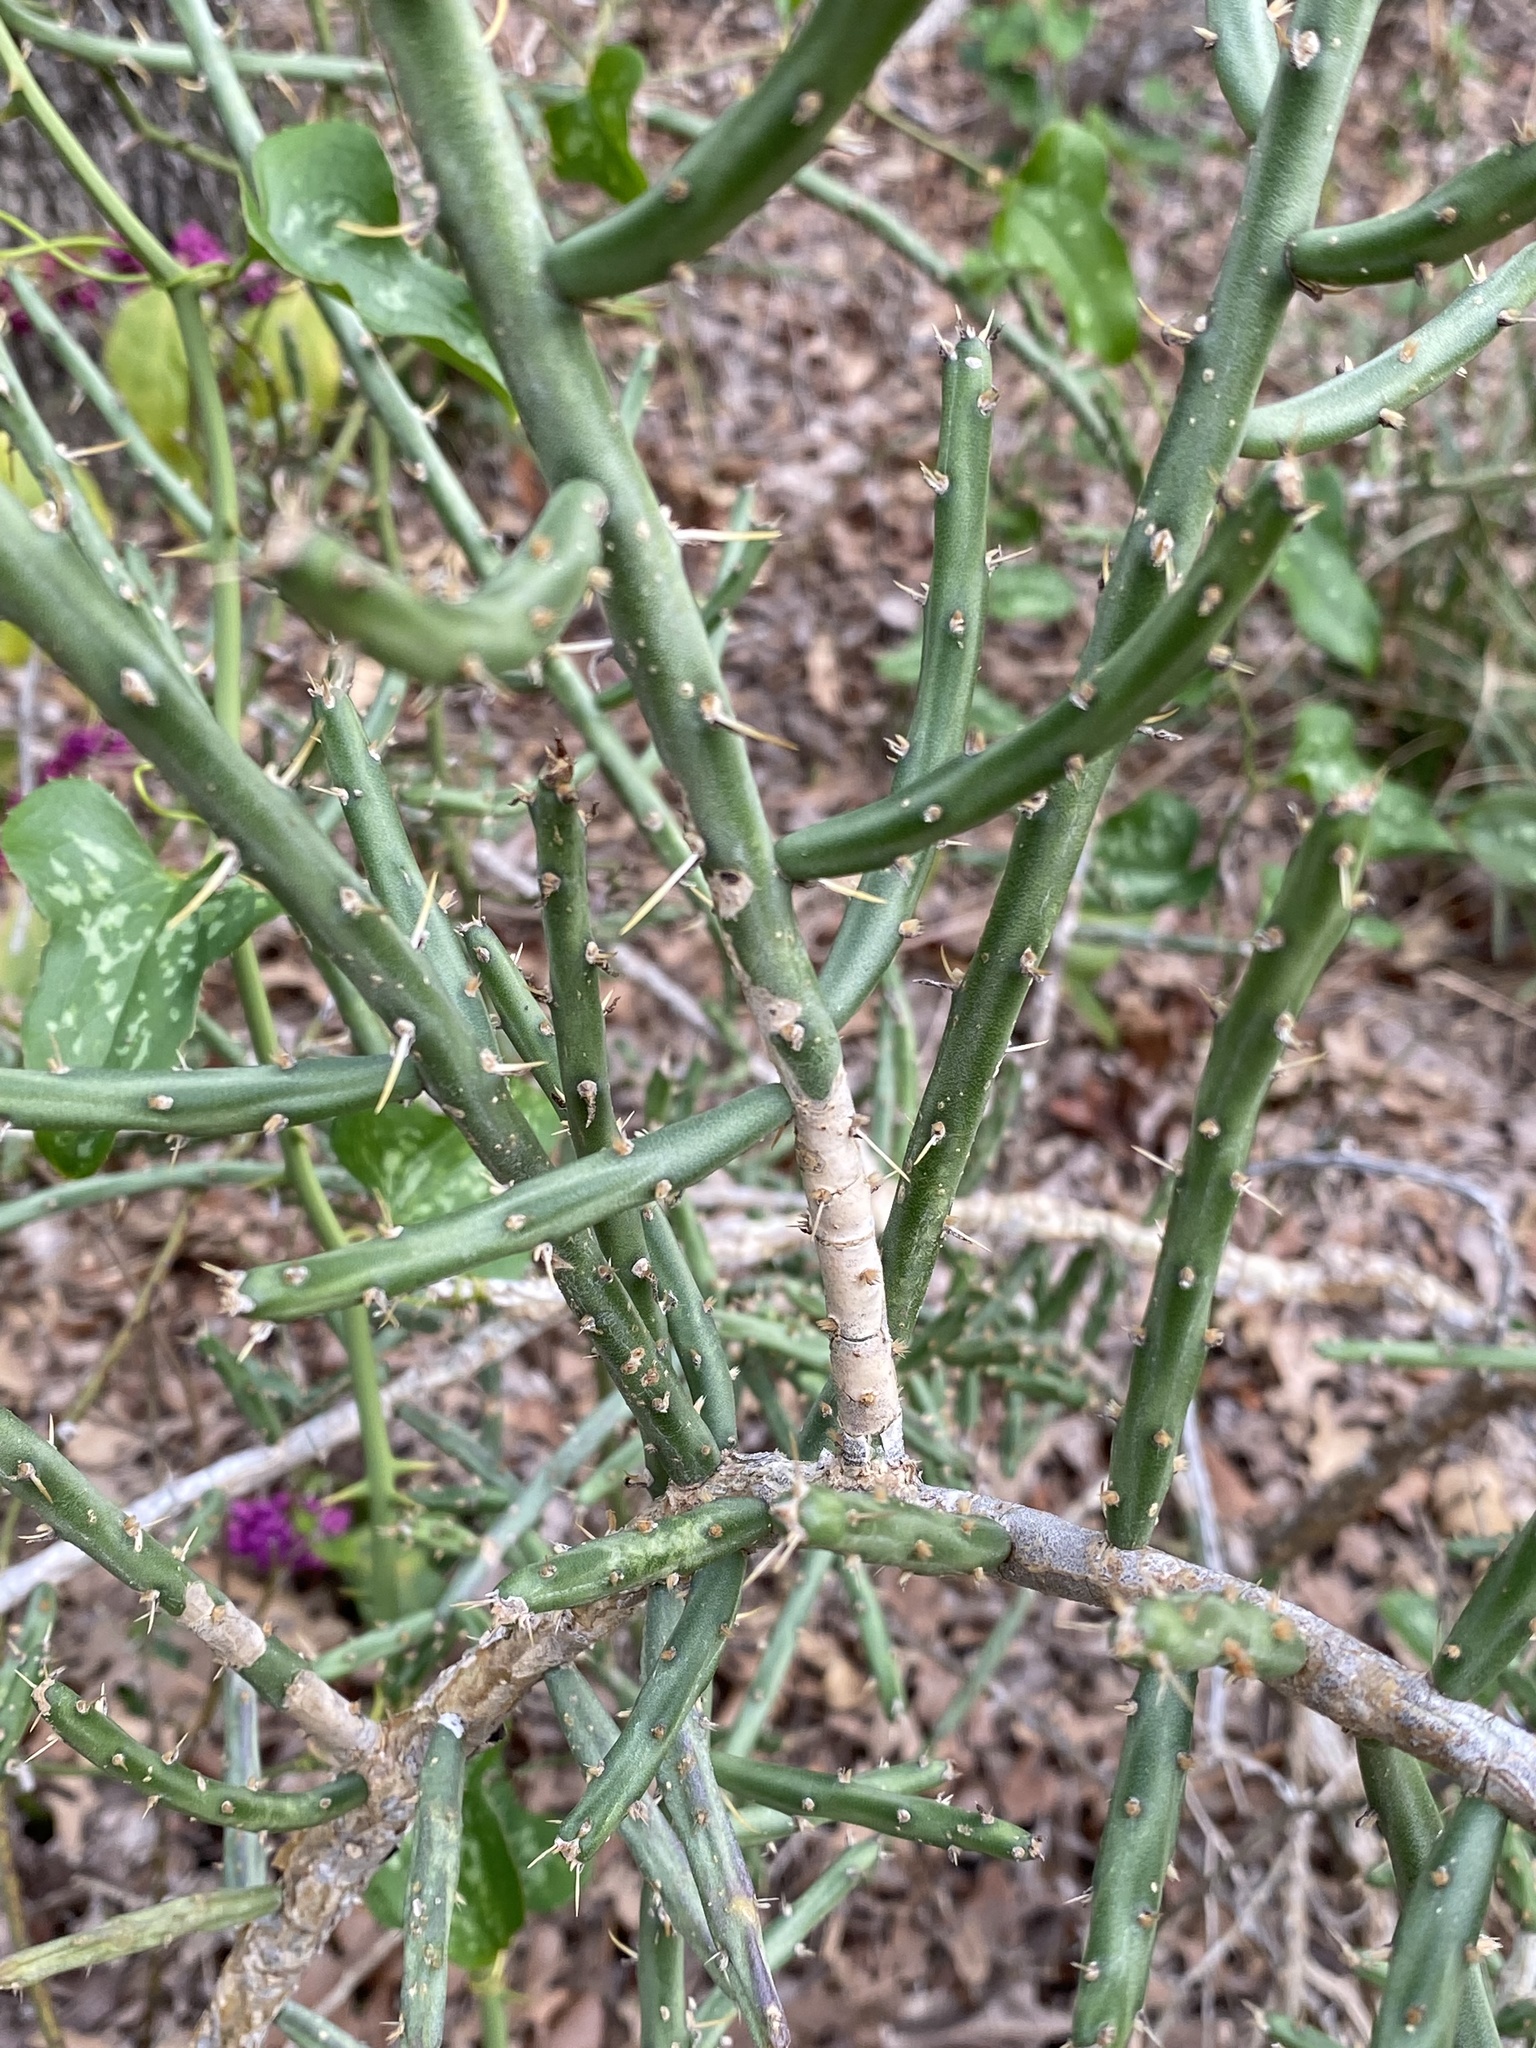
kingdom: Plantae
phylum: Tracheophyta
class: Magnoliopsida
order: Caryophyllales
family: Cactaceae
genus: Cylindropuntia
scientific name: Cylindropuntia leptocaulis
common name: Christmas cactus
